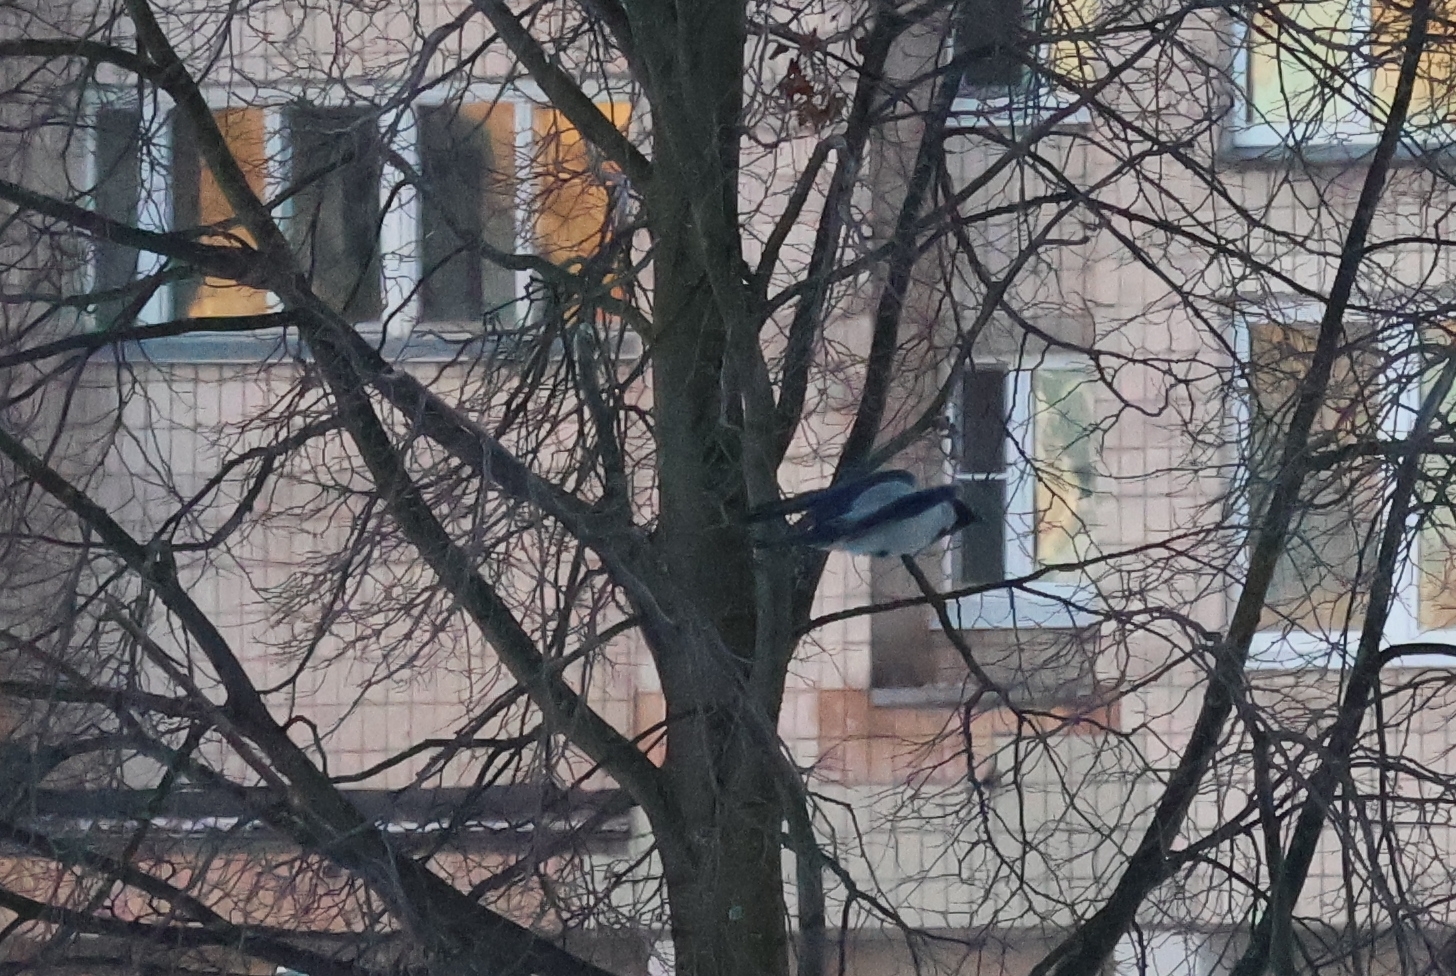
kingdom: Animalia
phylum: Chordata
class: Aves
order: Passeriformes
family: Corvidae
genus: Corvus
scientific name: Corvus cornix
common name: Hooded crow
